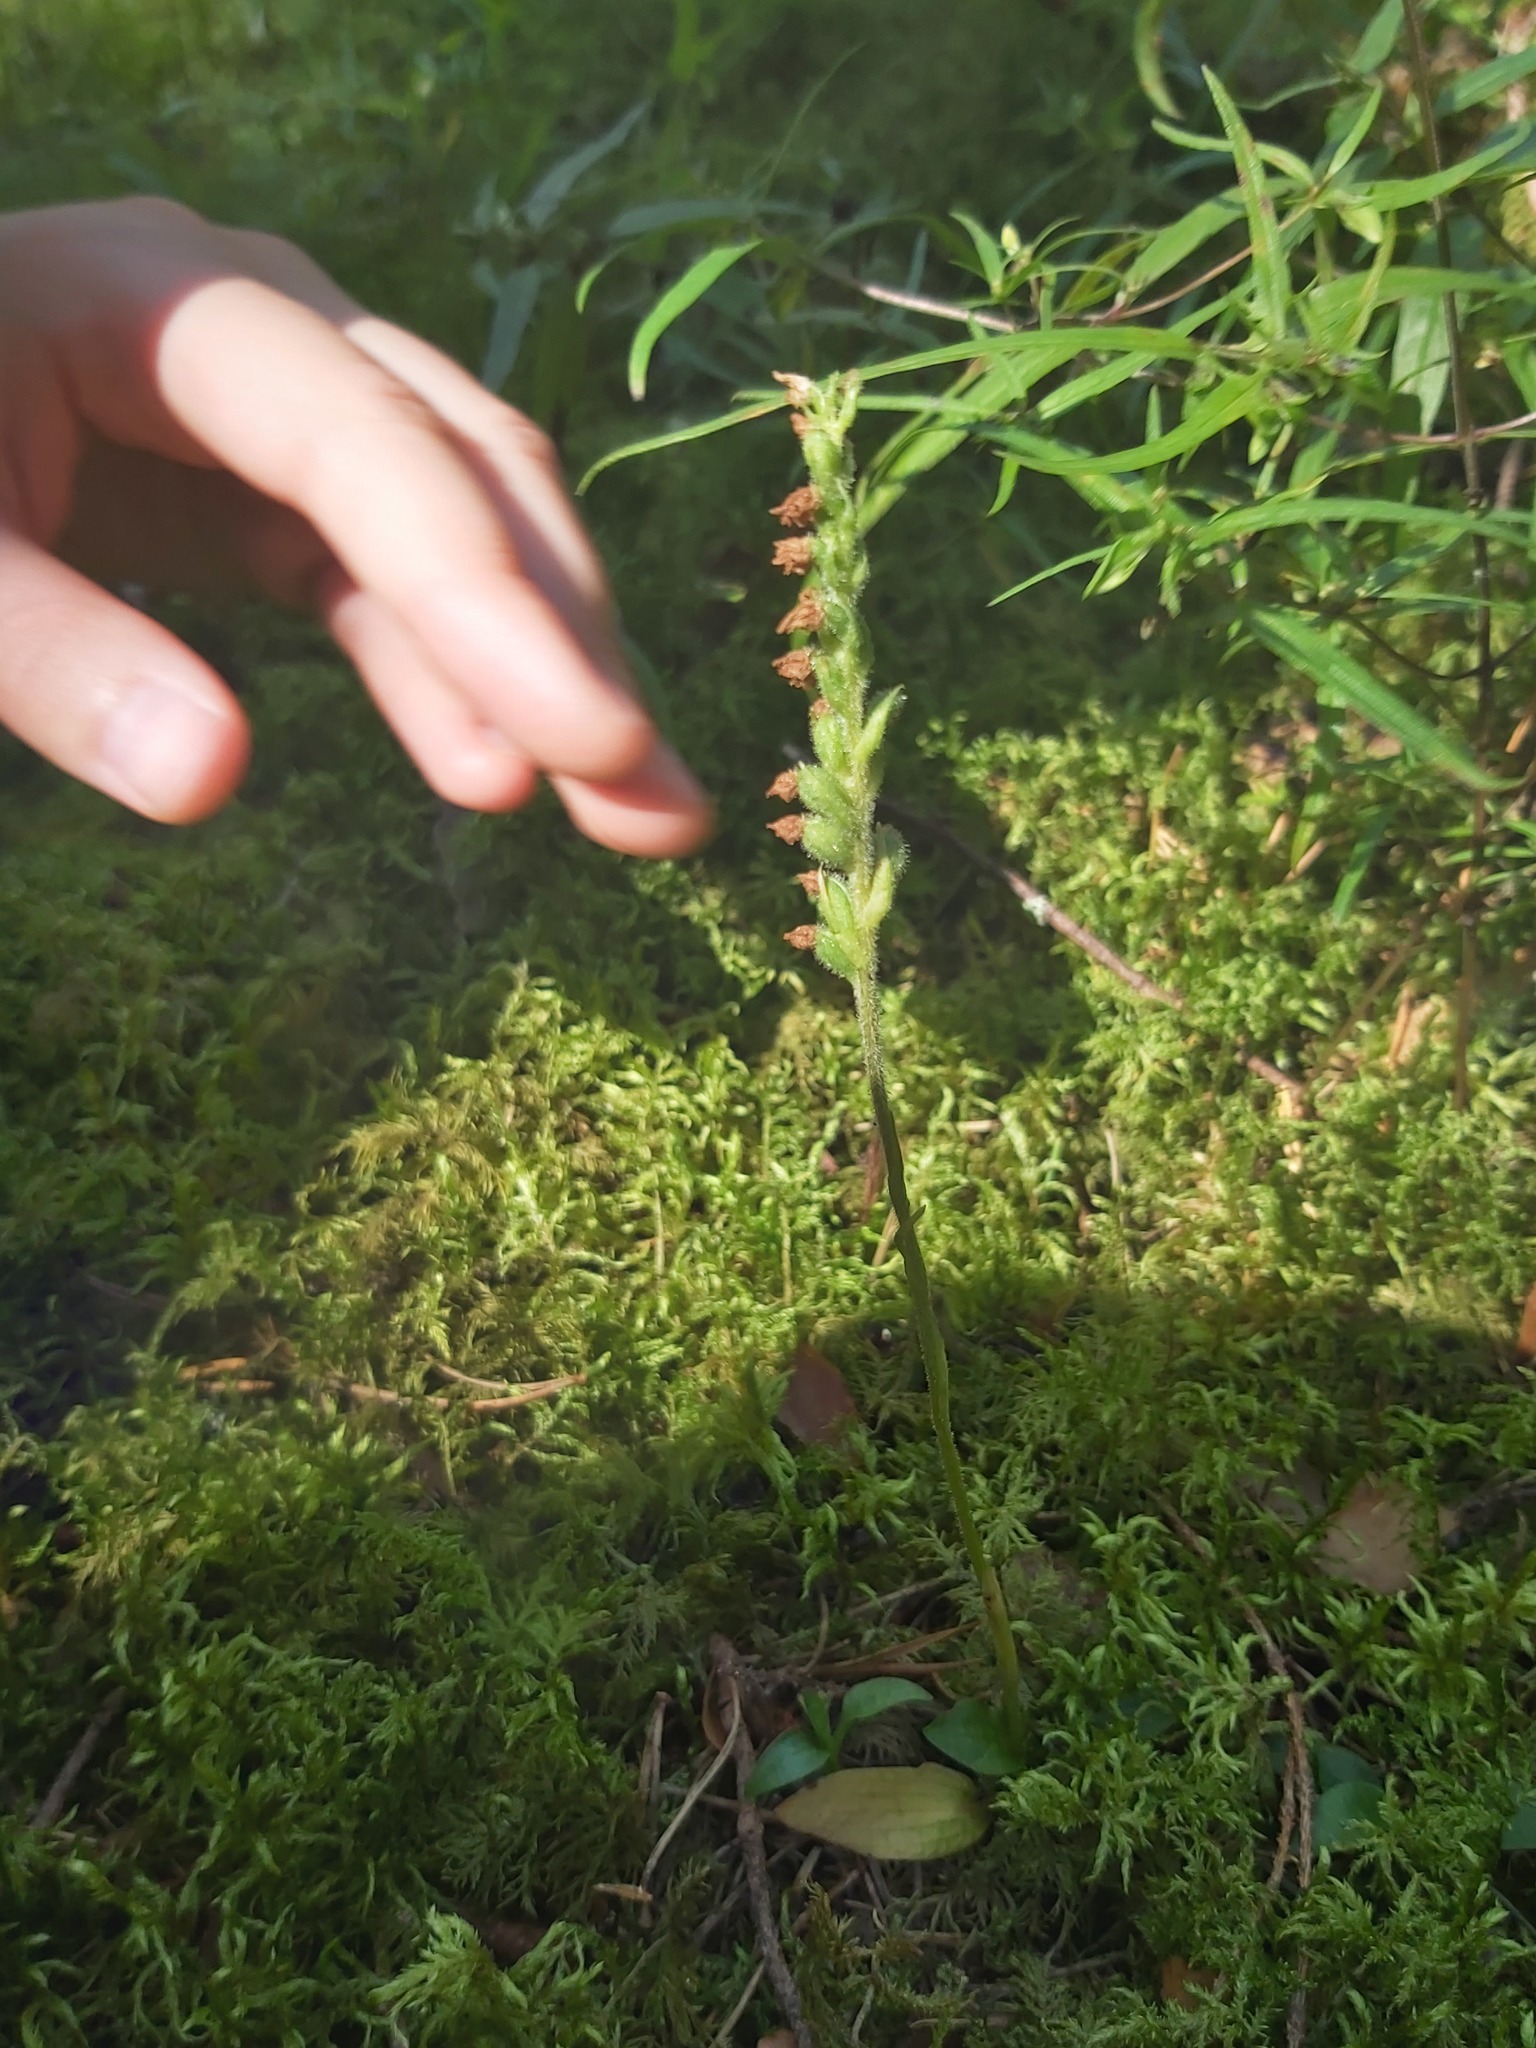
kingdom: Plantae
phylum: Tracheophyta
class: Liliopsida
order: Asparagales
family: Orchidaceae
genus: Goodyera
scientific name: Goodyera repens
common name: Creeping lady's-tresses
